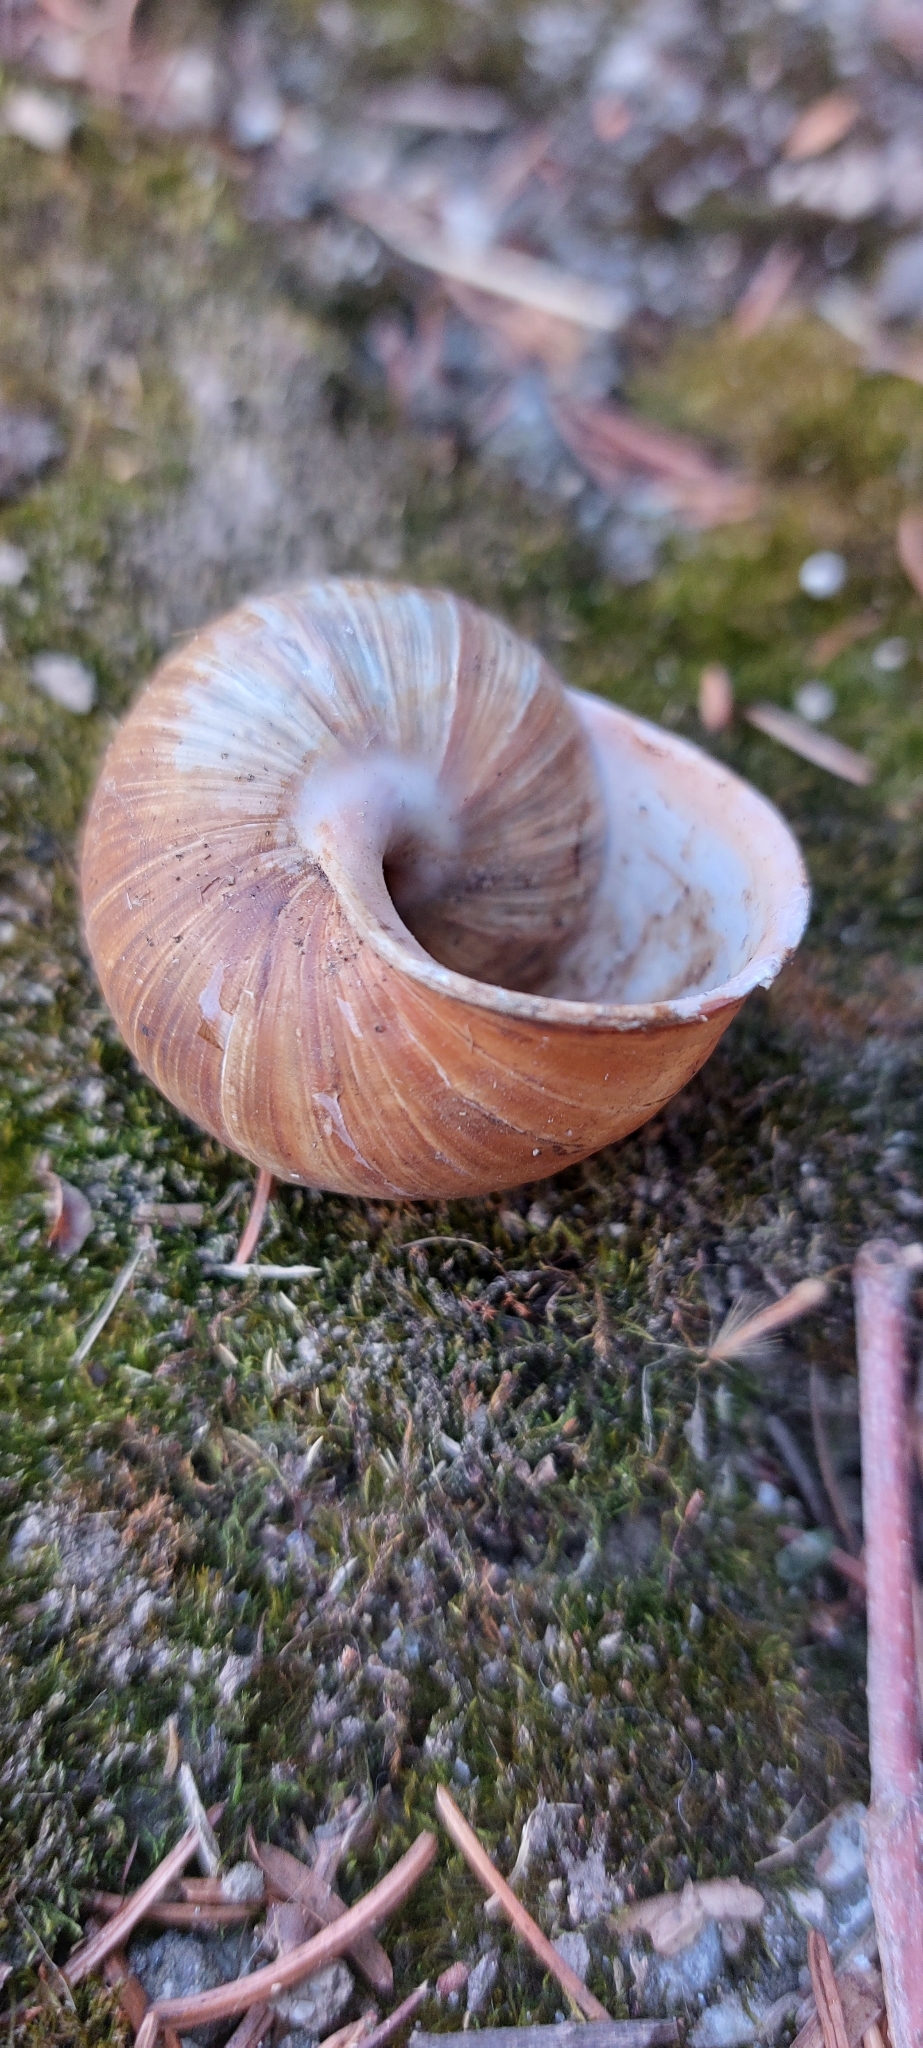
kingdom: Animalia
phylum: Mollusca
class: Gastropoda
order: Stylommatophora
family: Helicidae
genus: Helix
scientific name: Helix pomatia
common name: Roman snail
